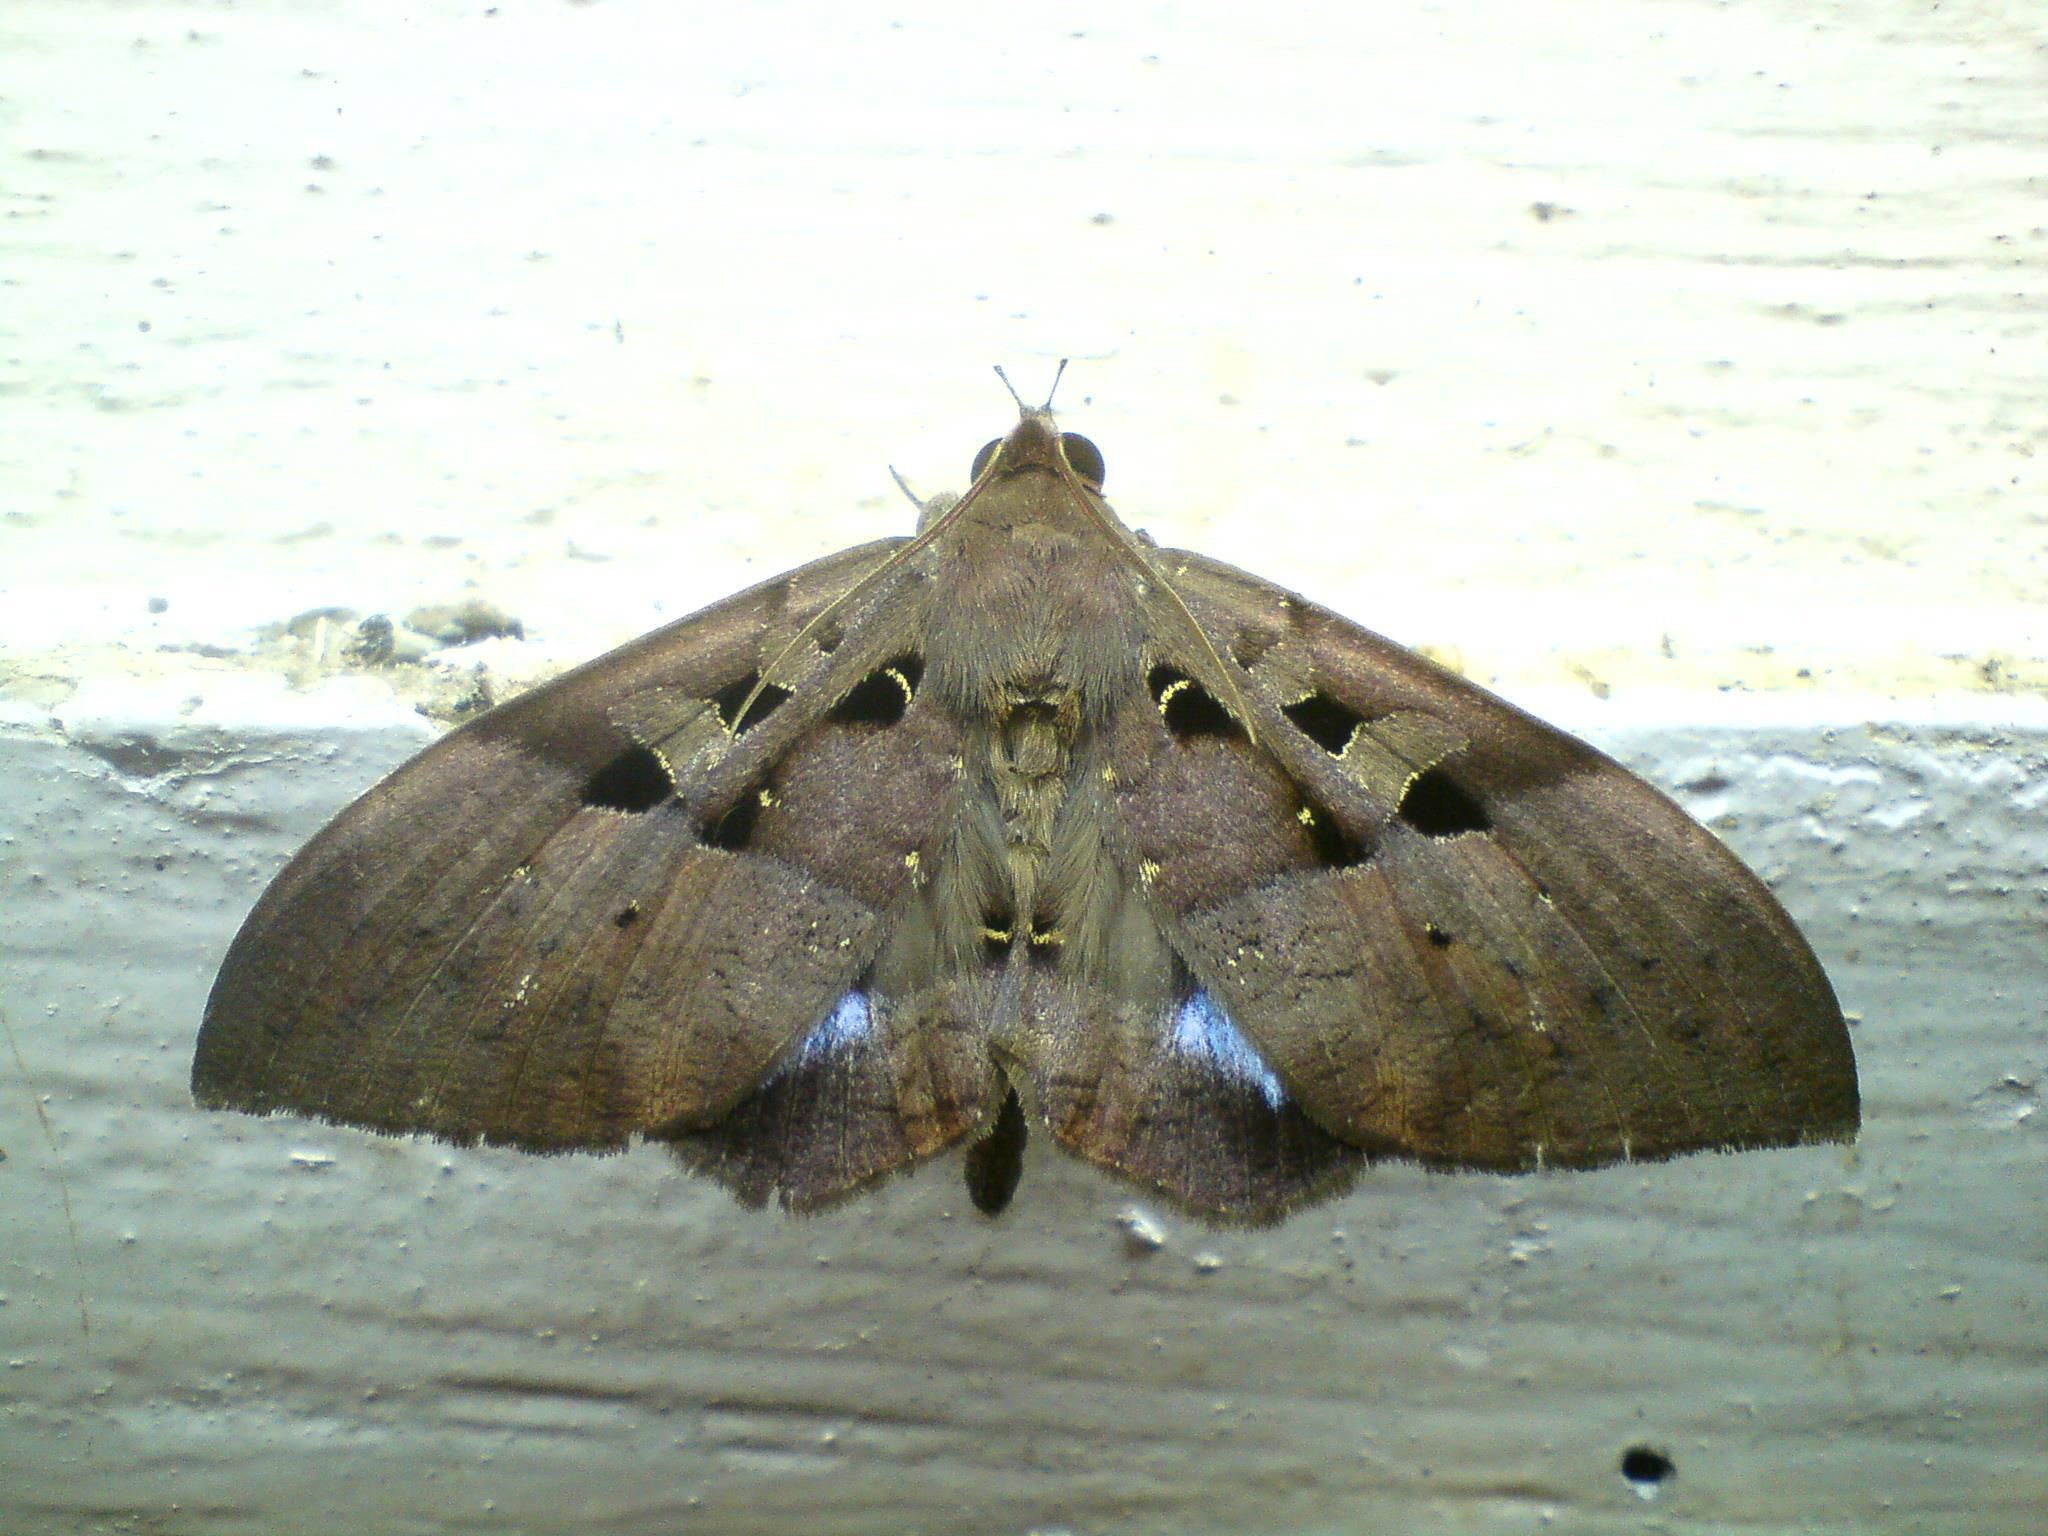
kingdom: Animalia
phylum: Arthropoda
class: Insecta
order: Lepidoptera
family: Erebidae
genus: Ischyja
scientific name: Ischyja marapok
